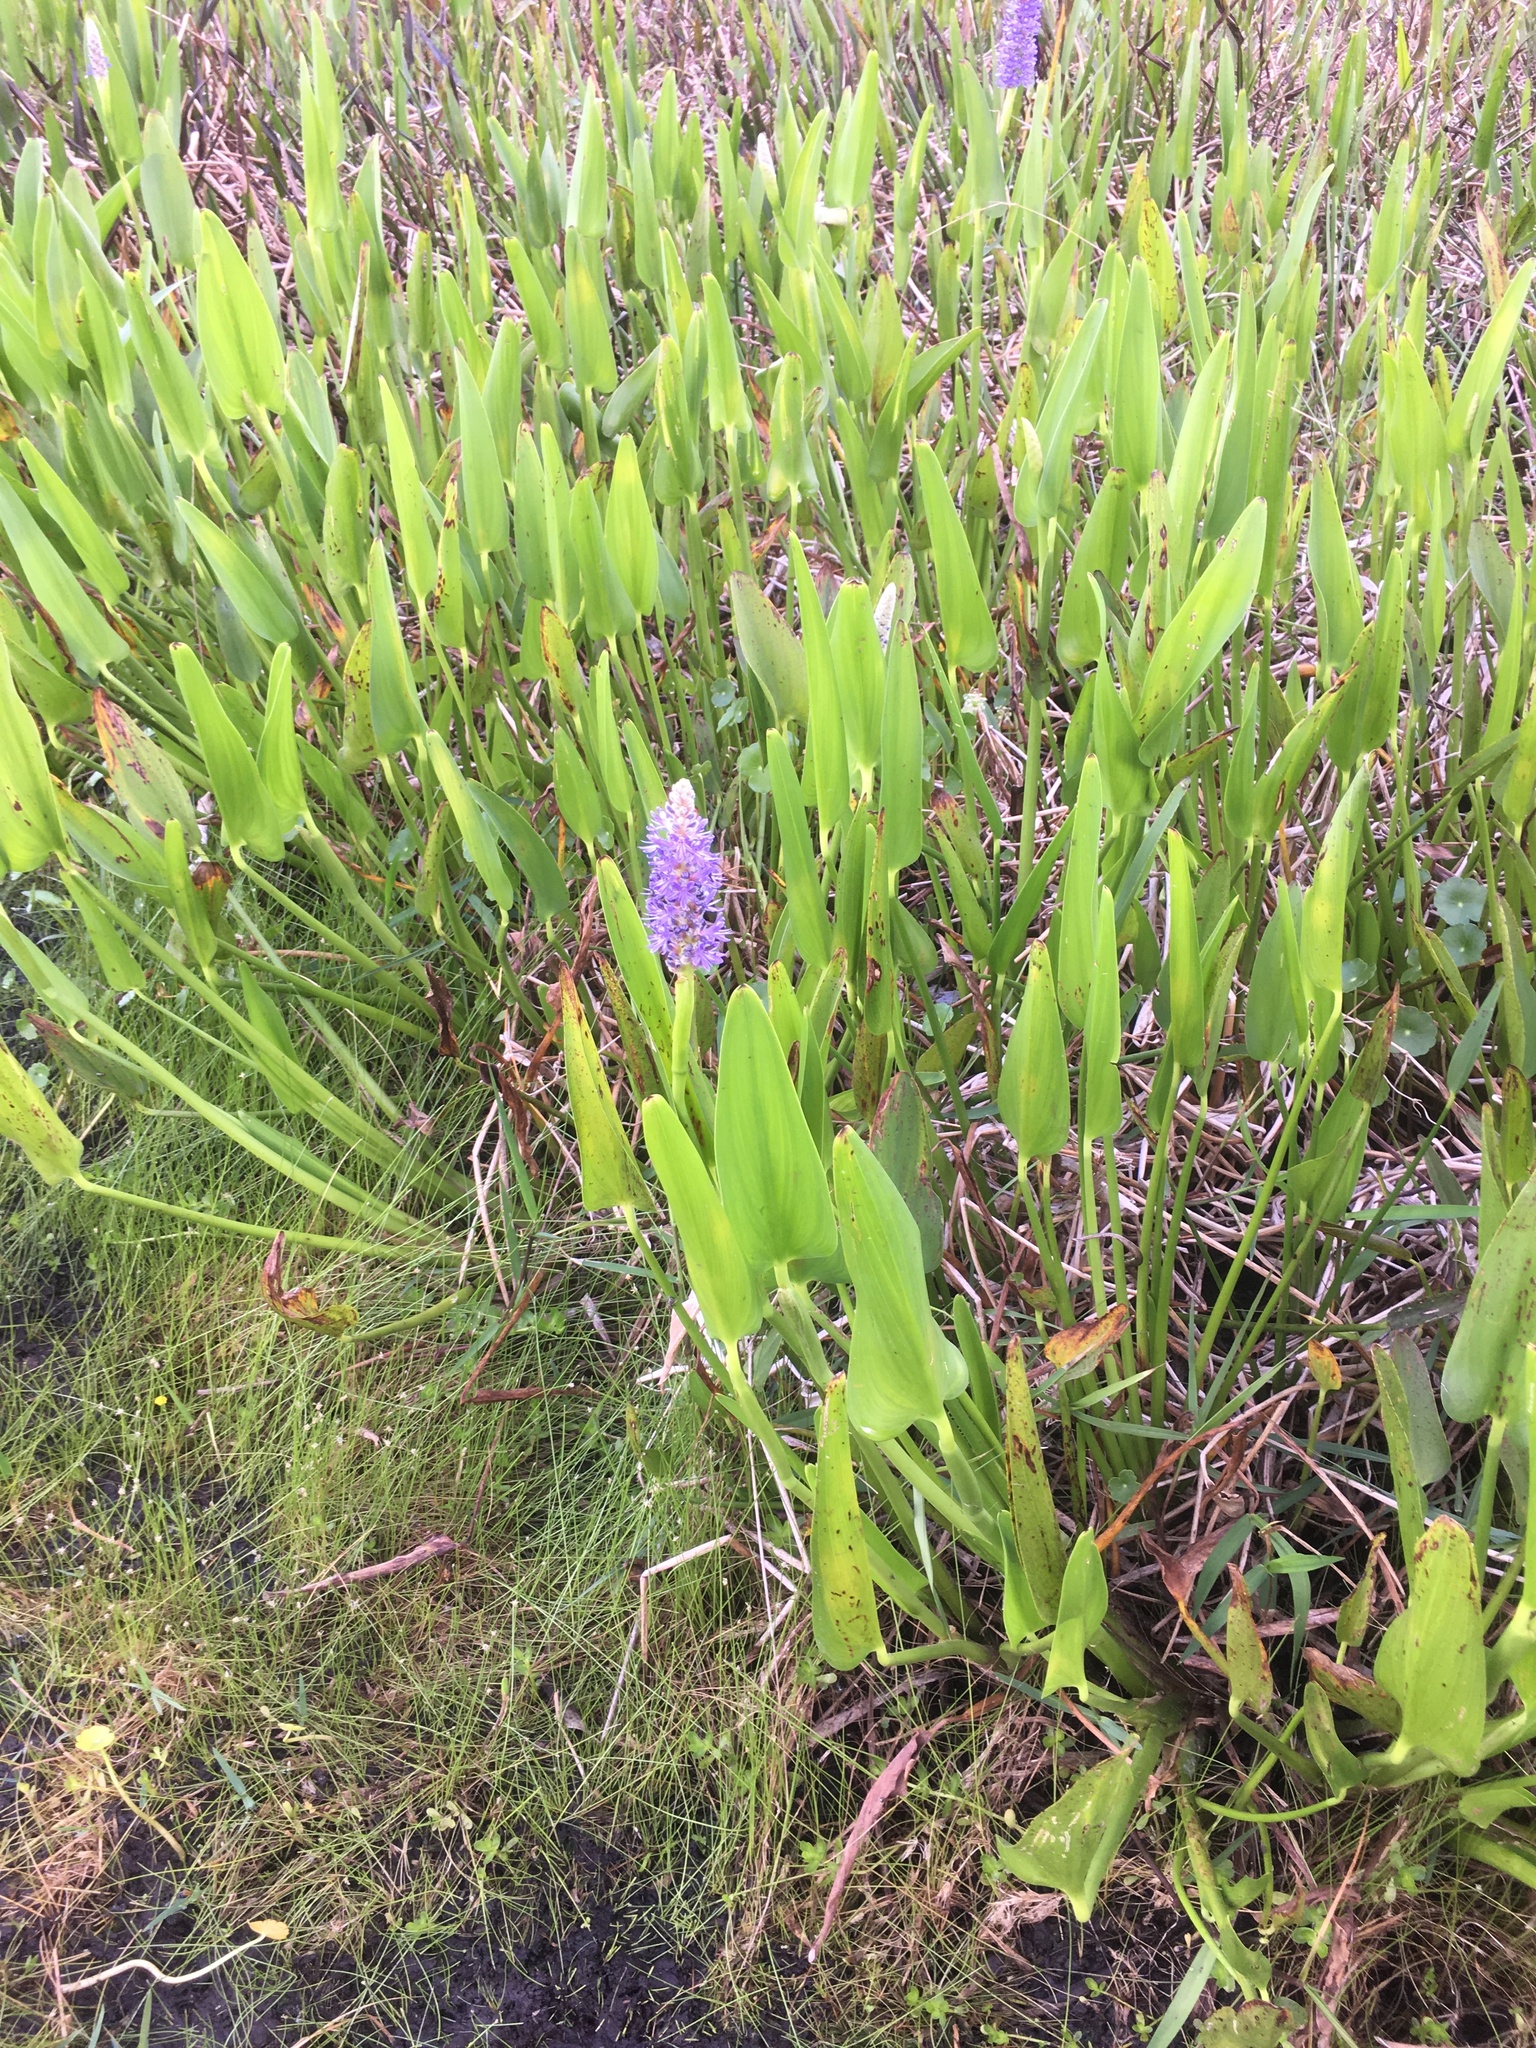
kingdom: Plantae
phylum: Tracheophyta
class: Liliopsida
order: Commelinales
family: Pontederiaceae
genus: Pontederia
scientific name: Pontederia cordata
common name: Pickerelweed
